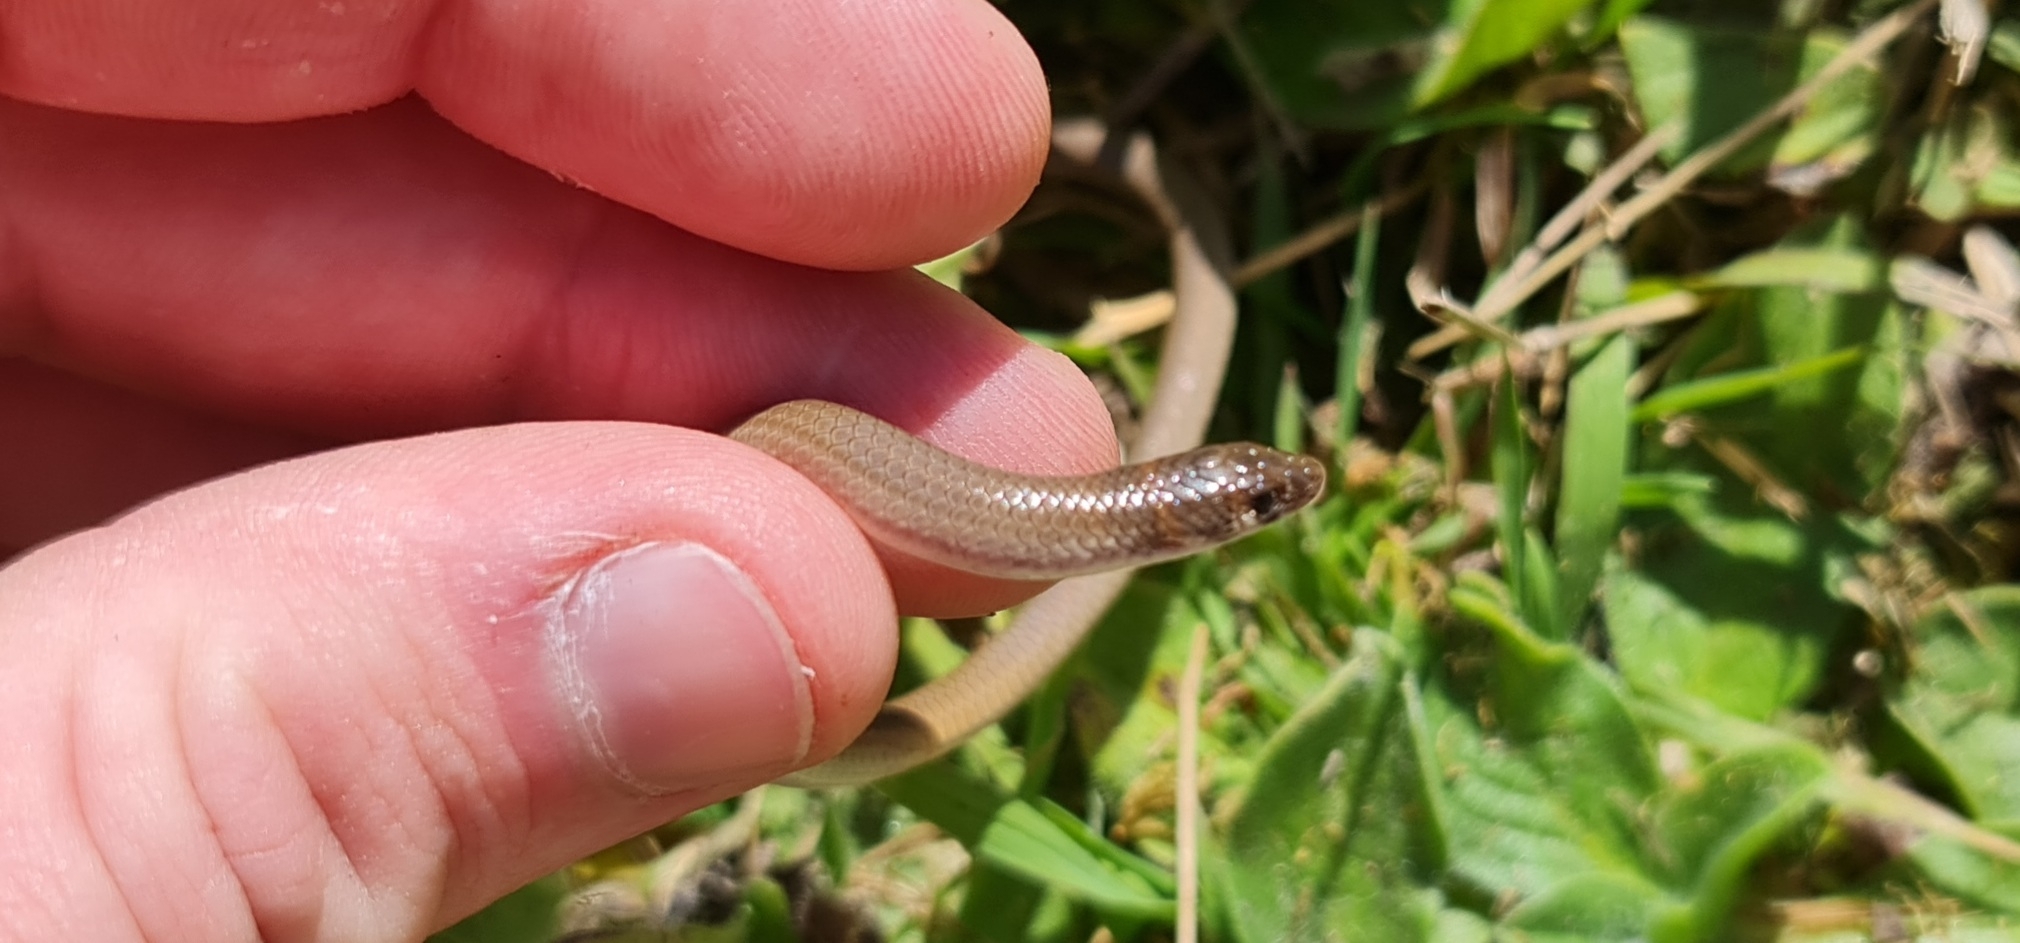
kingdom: Animalia
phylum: Chordata
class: Squamata
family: Pygopodidae
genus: Delma
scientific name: Delma tincta
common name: Excitable delma
